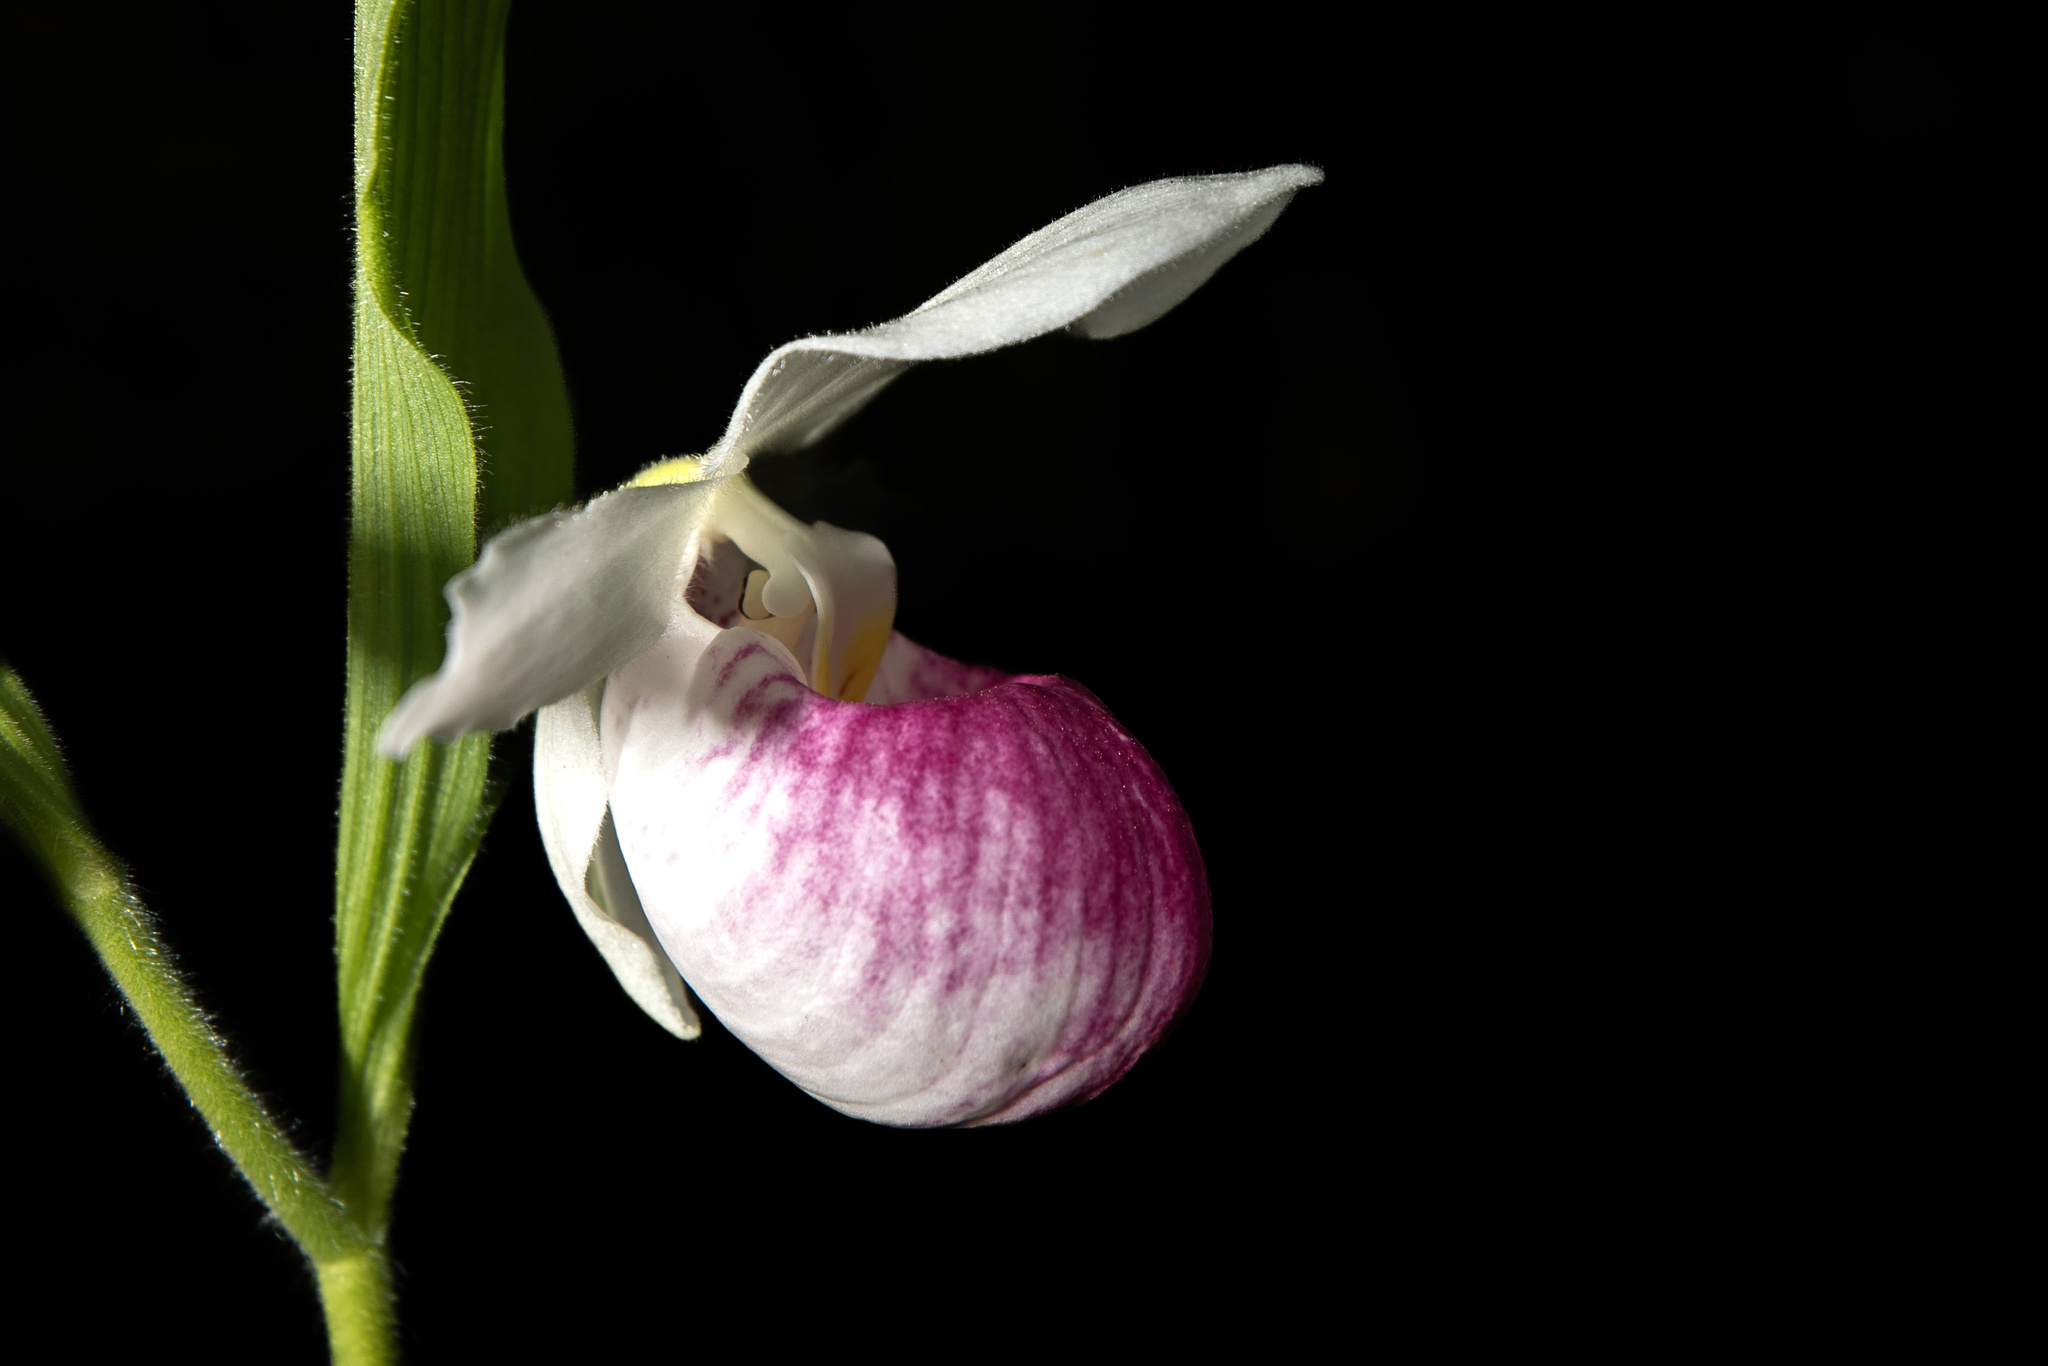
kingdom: Plantae
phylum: Tracheophyta
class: Liliopsida
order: Asparagales
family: Orchidaceae
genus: Cypripedium
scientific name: Cypripedium reginae
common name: Queen lady's-slipper
